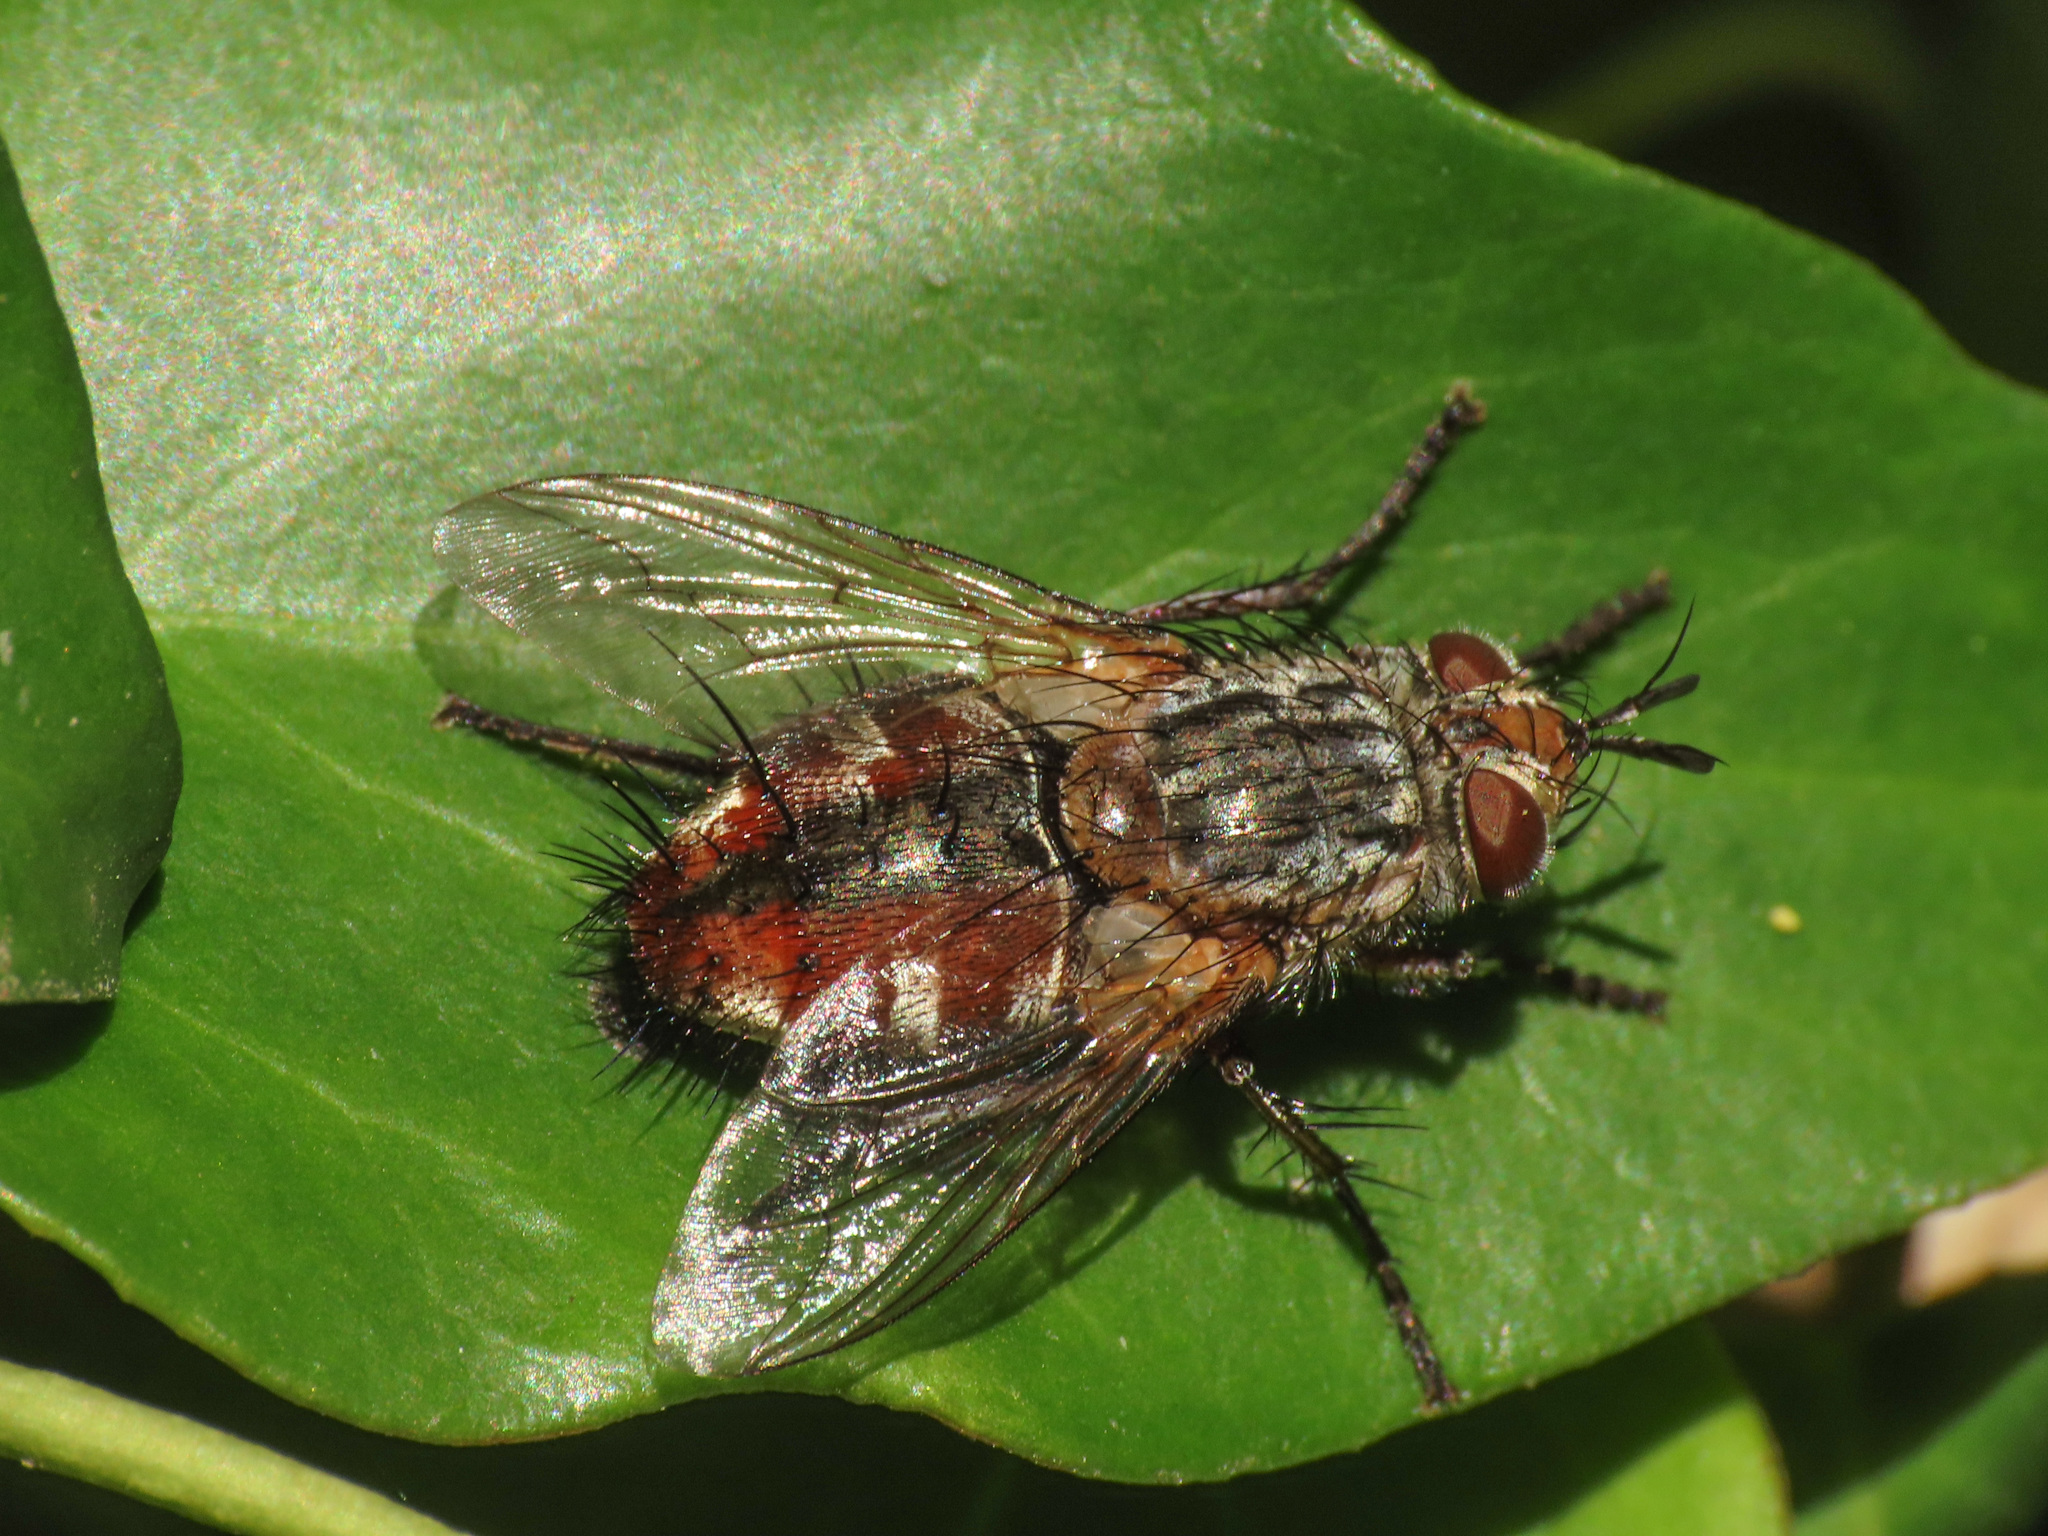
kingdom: Animalia
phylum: Arthropoda
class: Insecta
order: Diptera
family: Tachinidae
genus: Linnaemya
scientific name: Linnaemya vulpina
